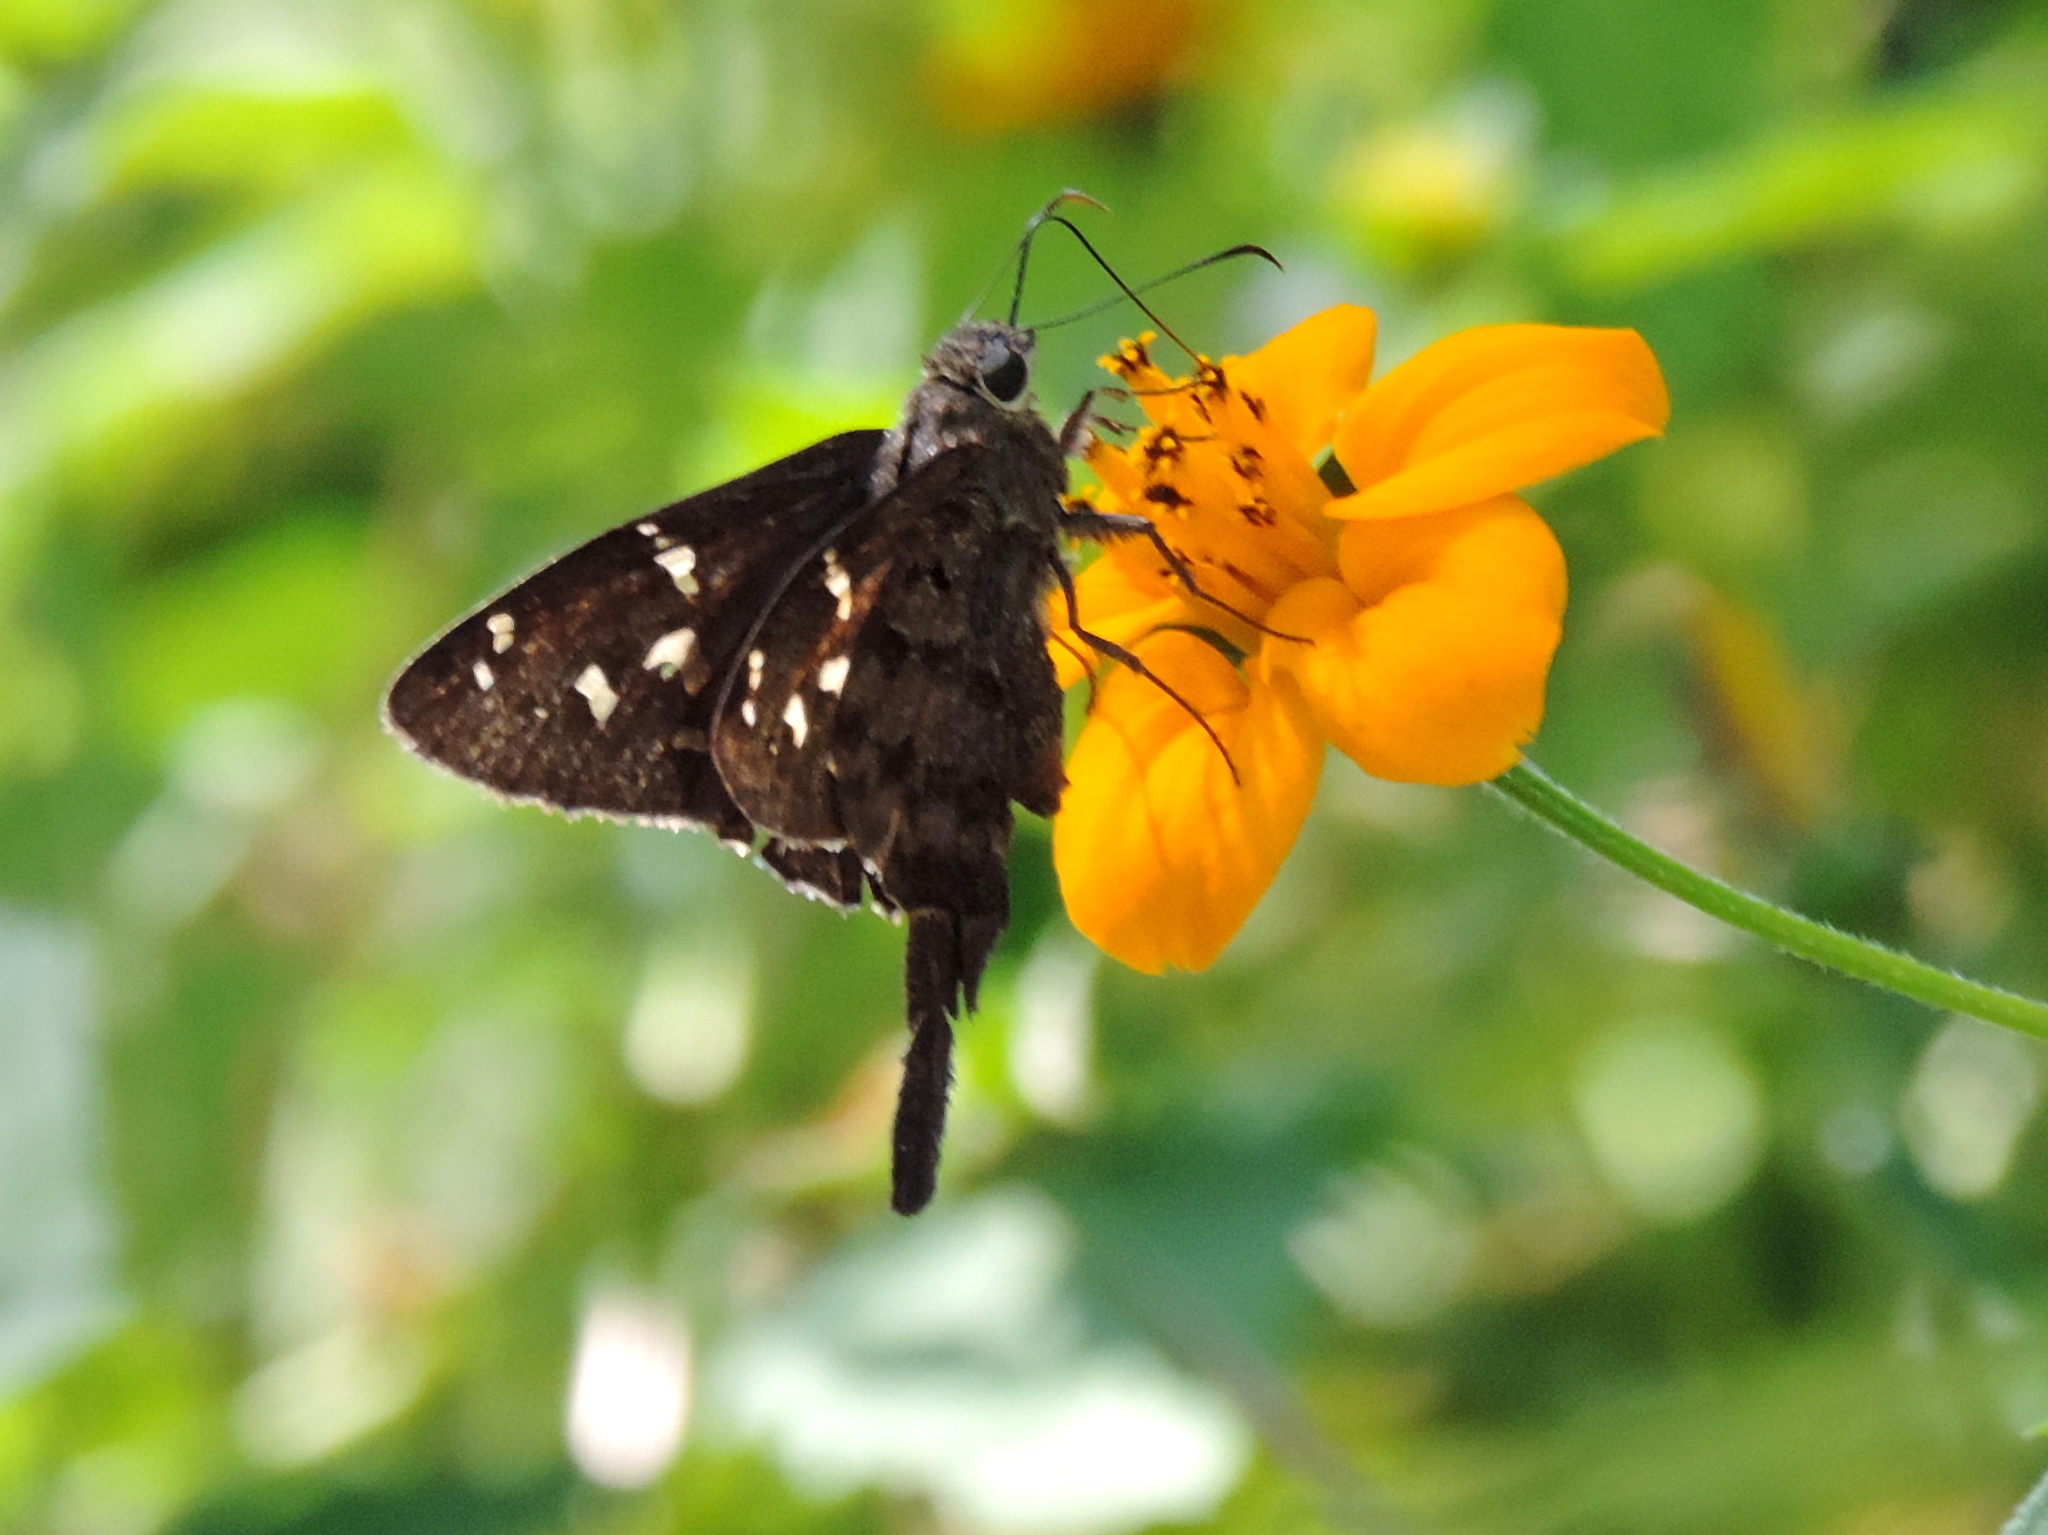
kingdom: Animalia
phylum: Arthropoda
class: Insecta
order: Lepidoptera
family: Hesperiidae
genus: Thorybes
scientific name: Thorybes
